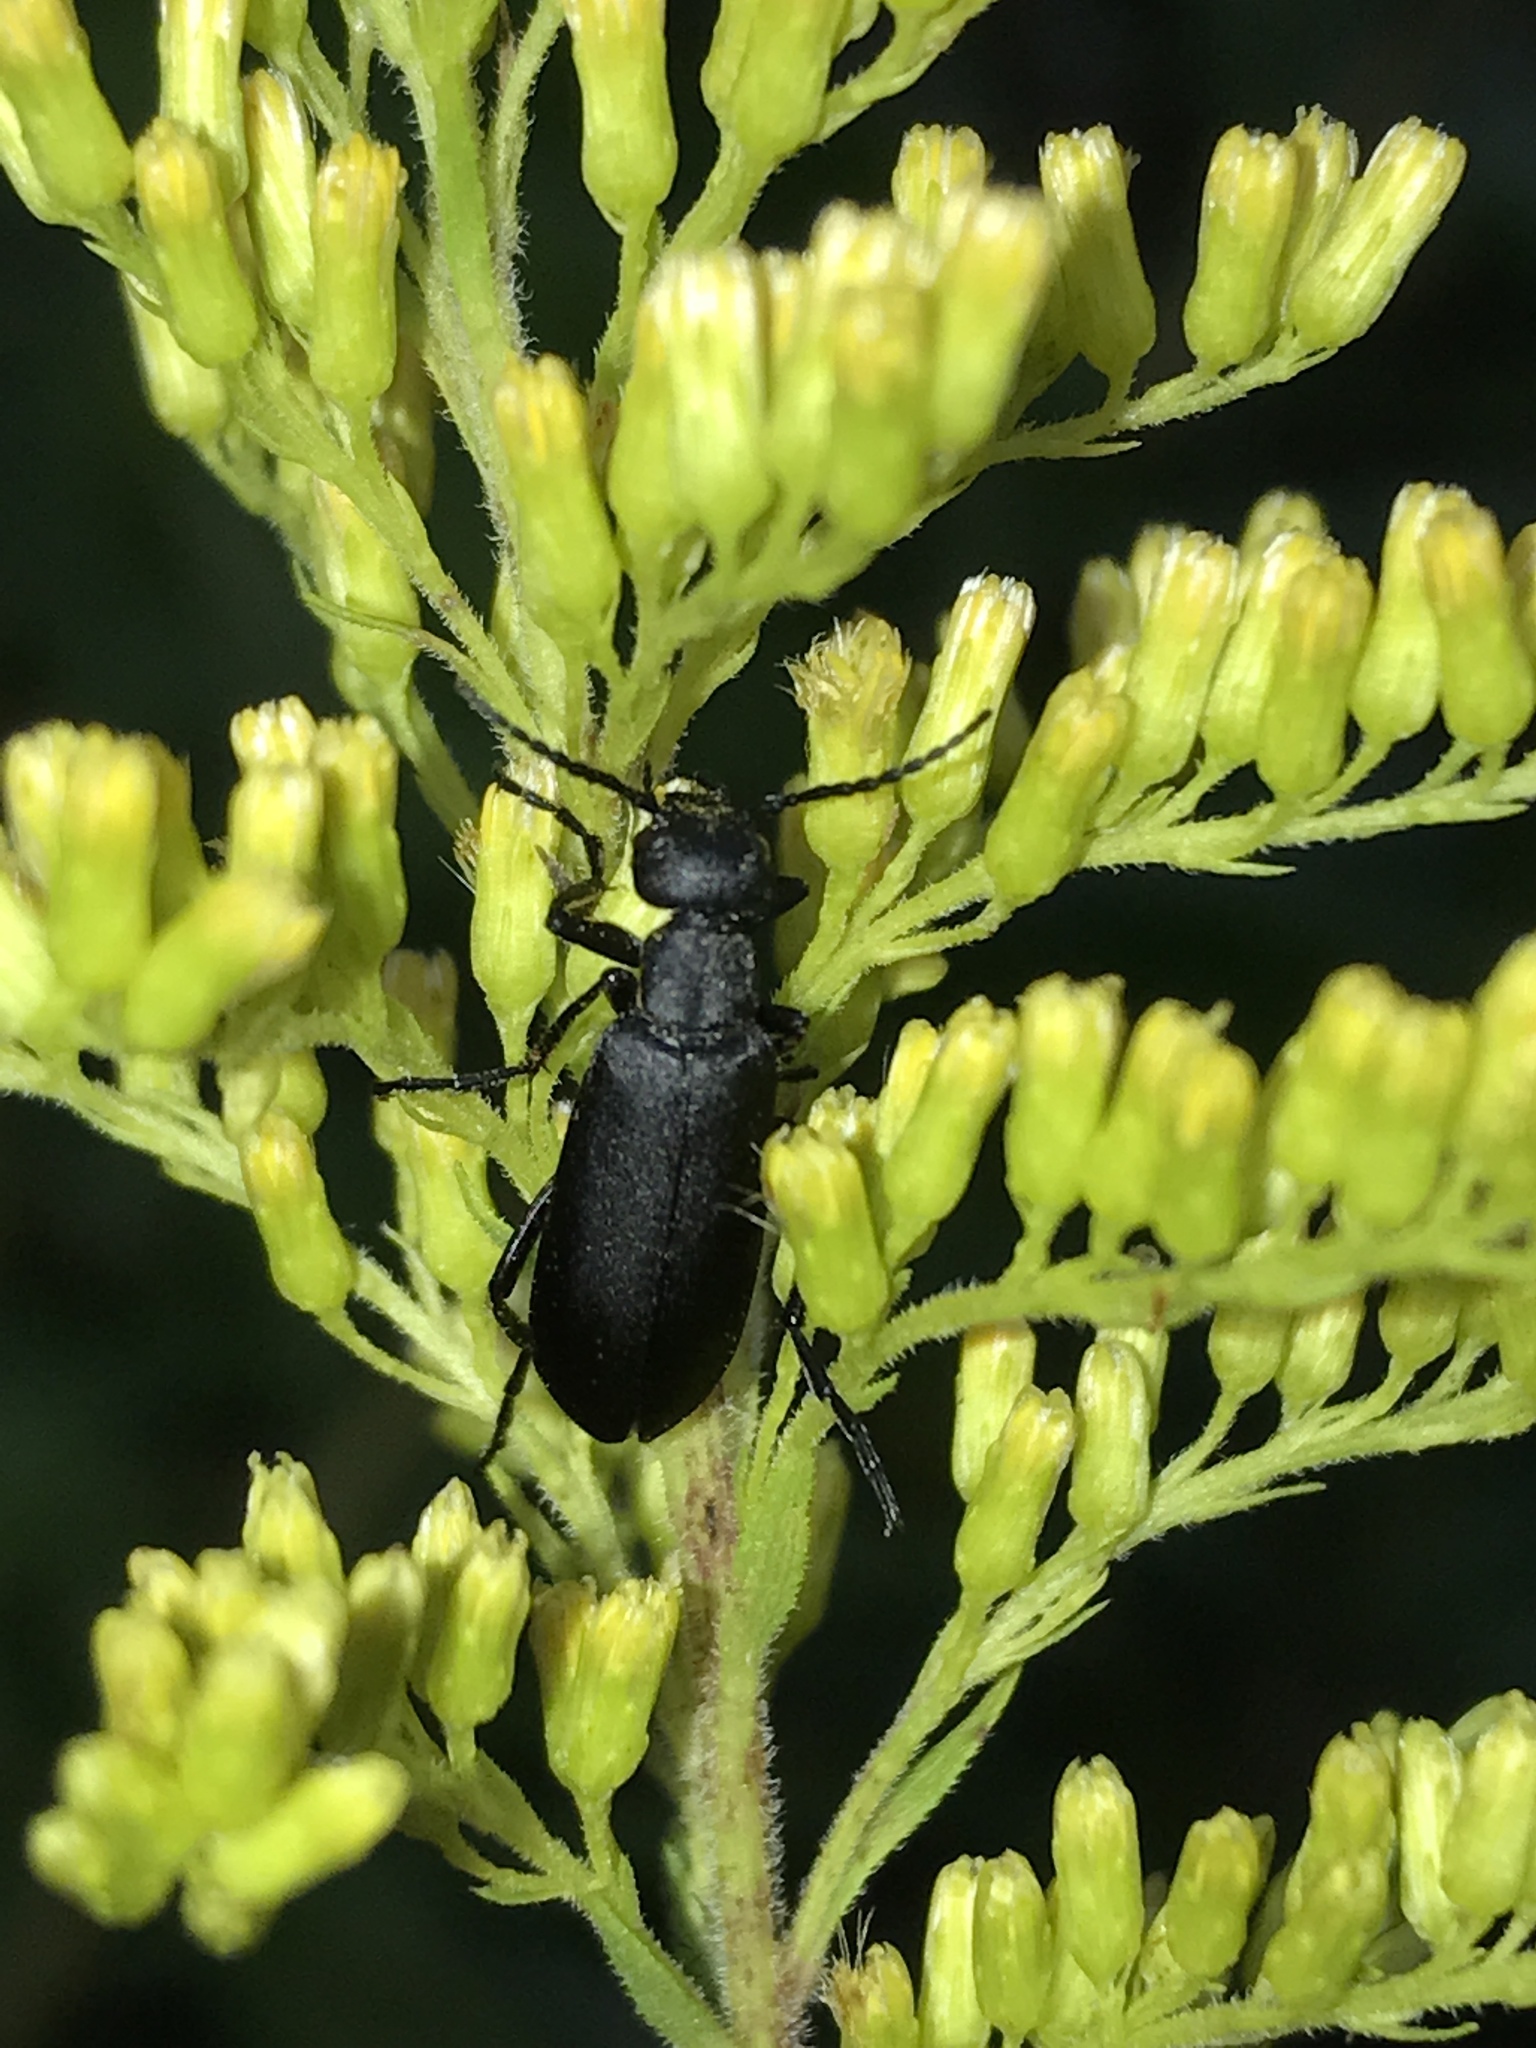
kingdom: Animalia
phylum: Arthropoda
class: Insecta
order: Coleoptera
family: Meloidae
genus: Epicauta
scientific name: Epicauta pensylvanica
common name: Black blister beetle
